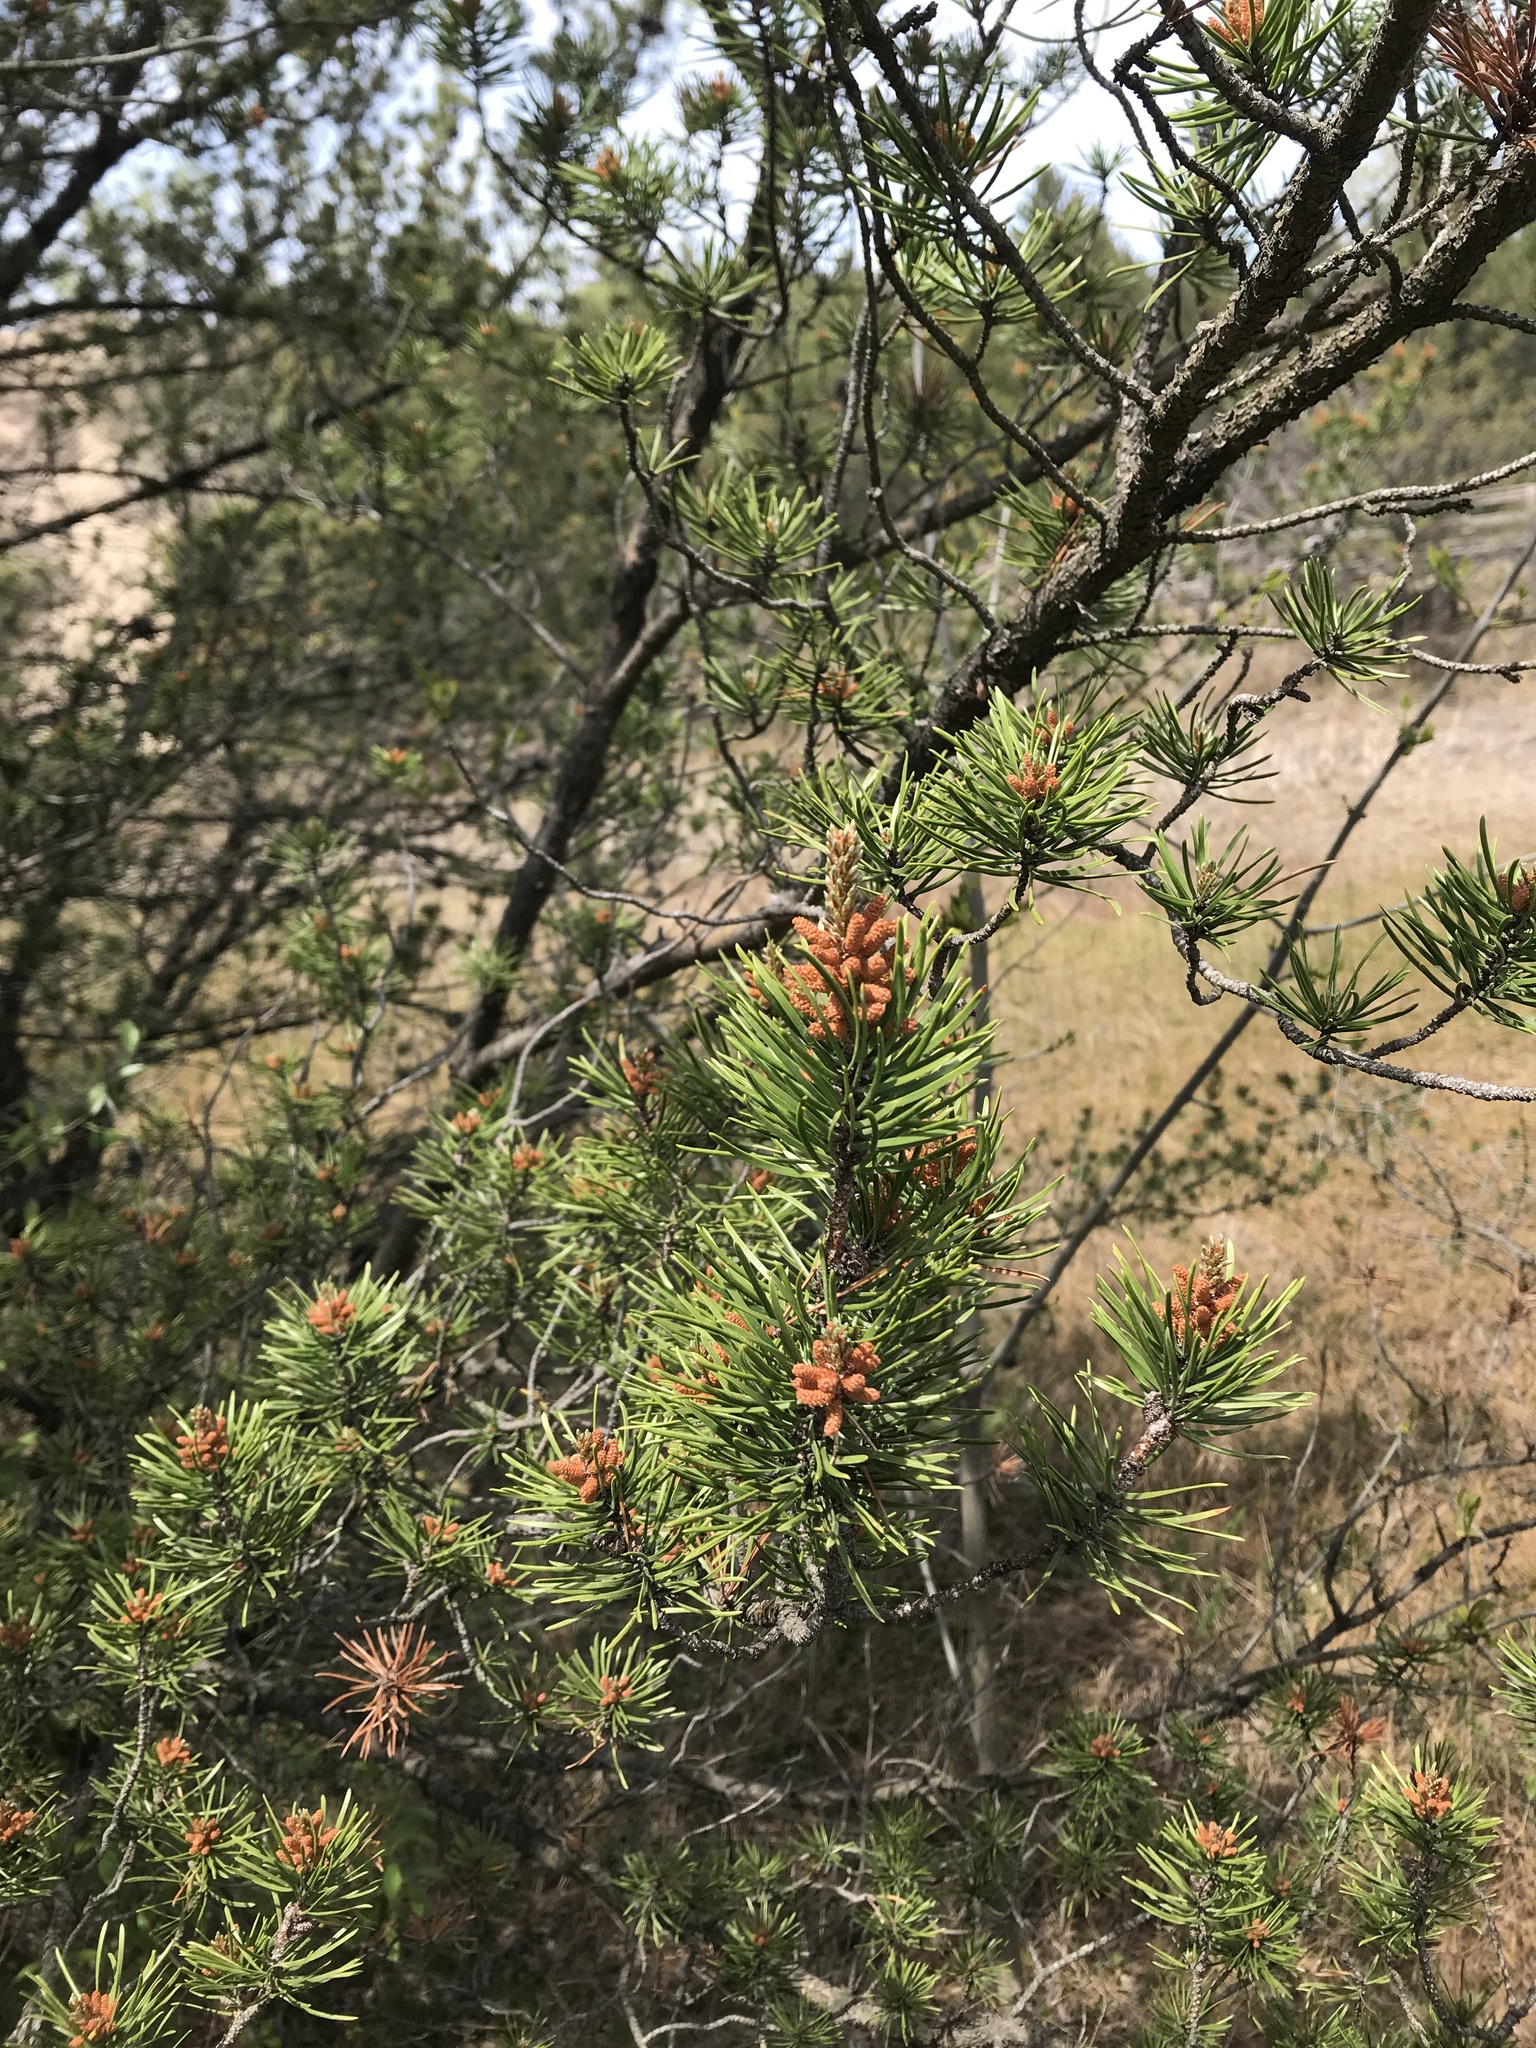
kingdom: Plantae
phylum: Tracheophyta
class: Pinopsida
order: Pinales
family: Pinaceae
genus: Pinus
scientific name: Pinus banksiana
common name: Jack pine
